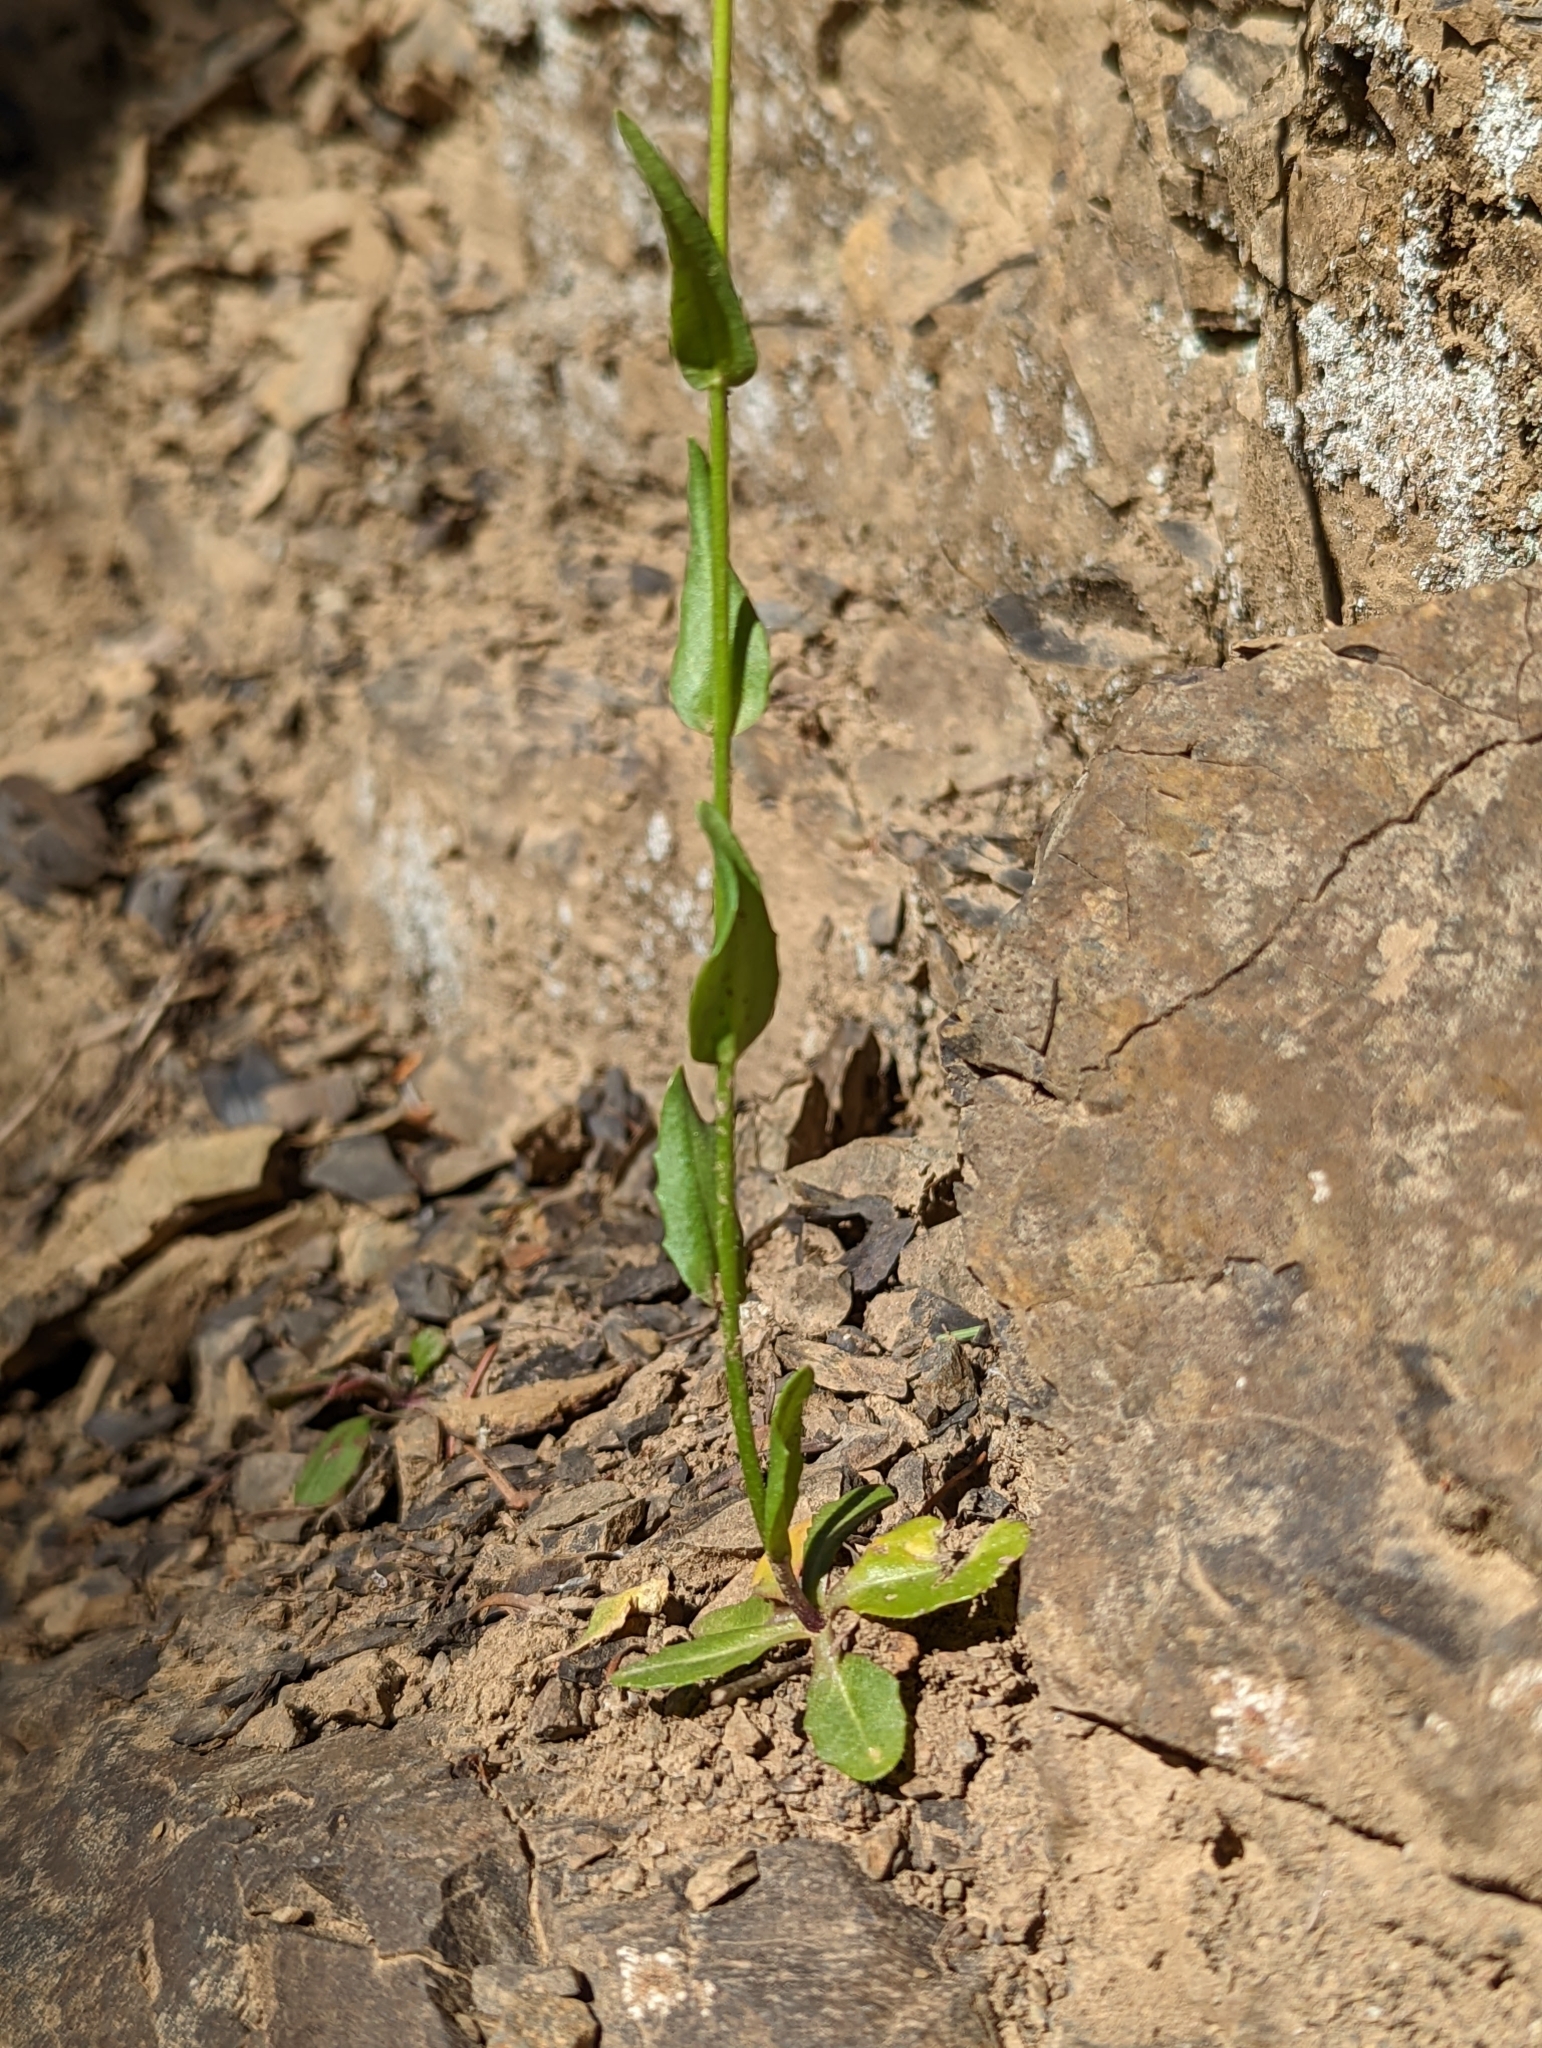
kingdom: Plantae
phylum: Tracheophyta
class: Magnoliopsida
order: Brassicales
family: Brassicaceae
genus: Arabis
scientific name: Arabis olympica
